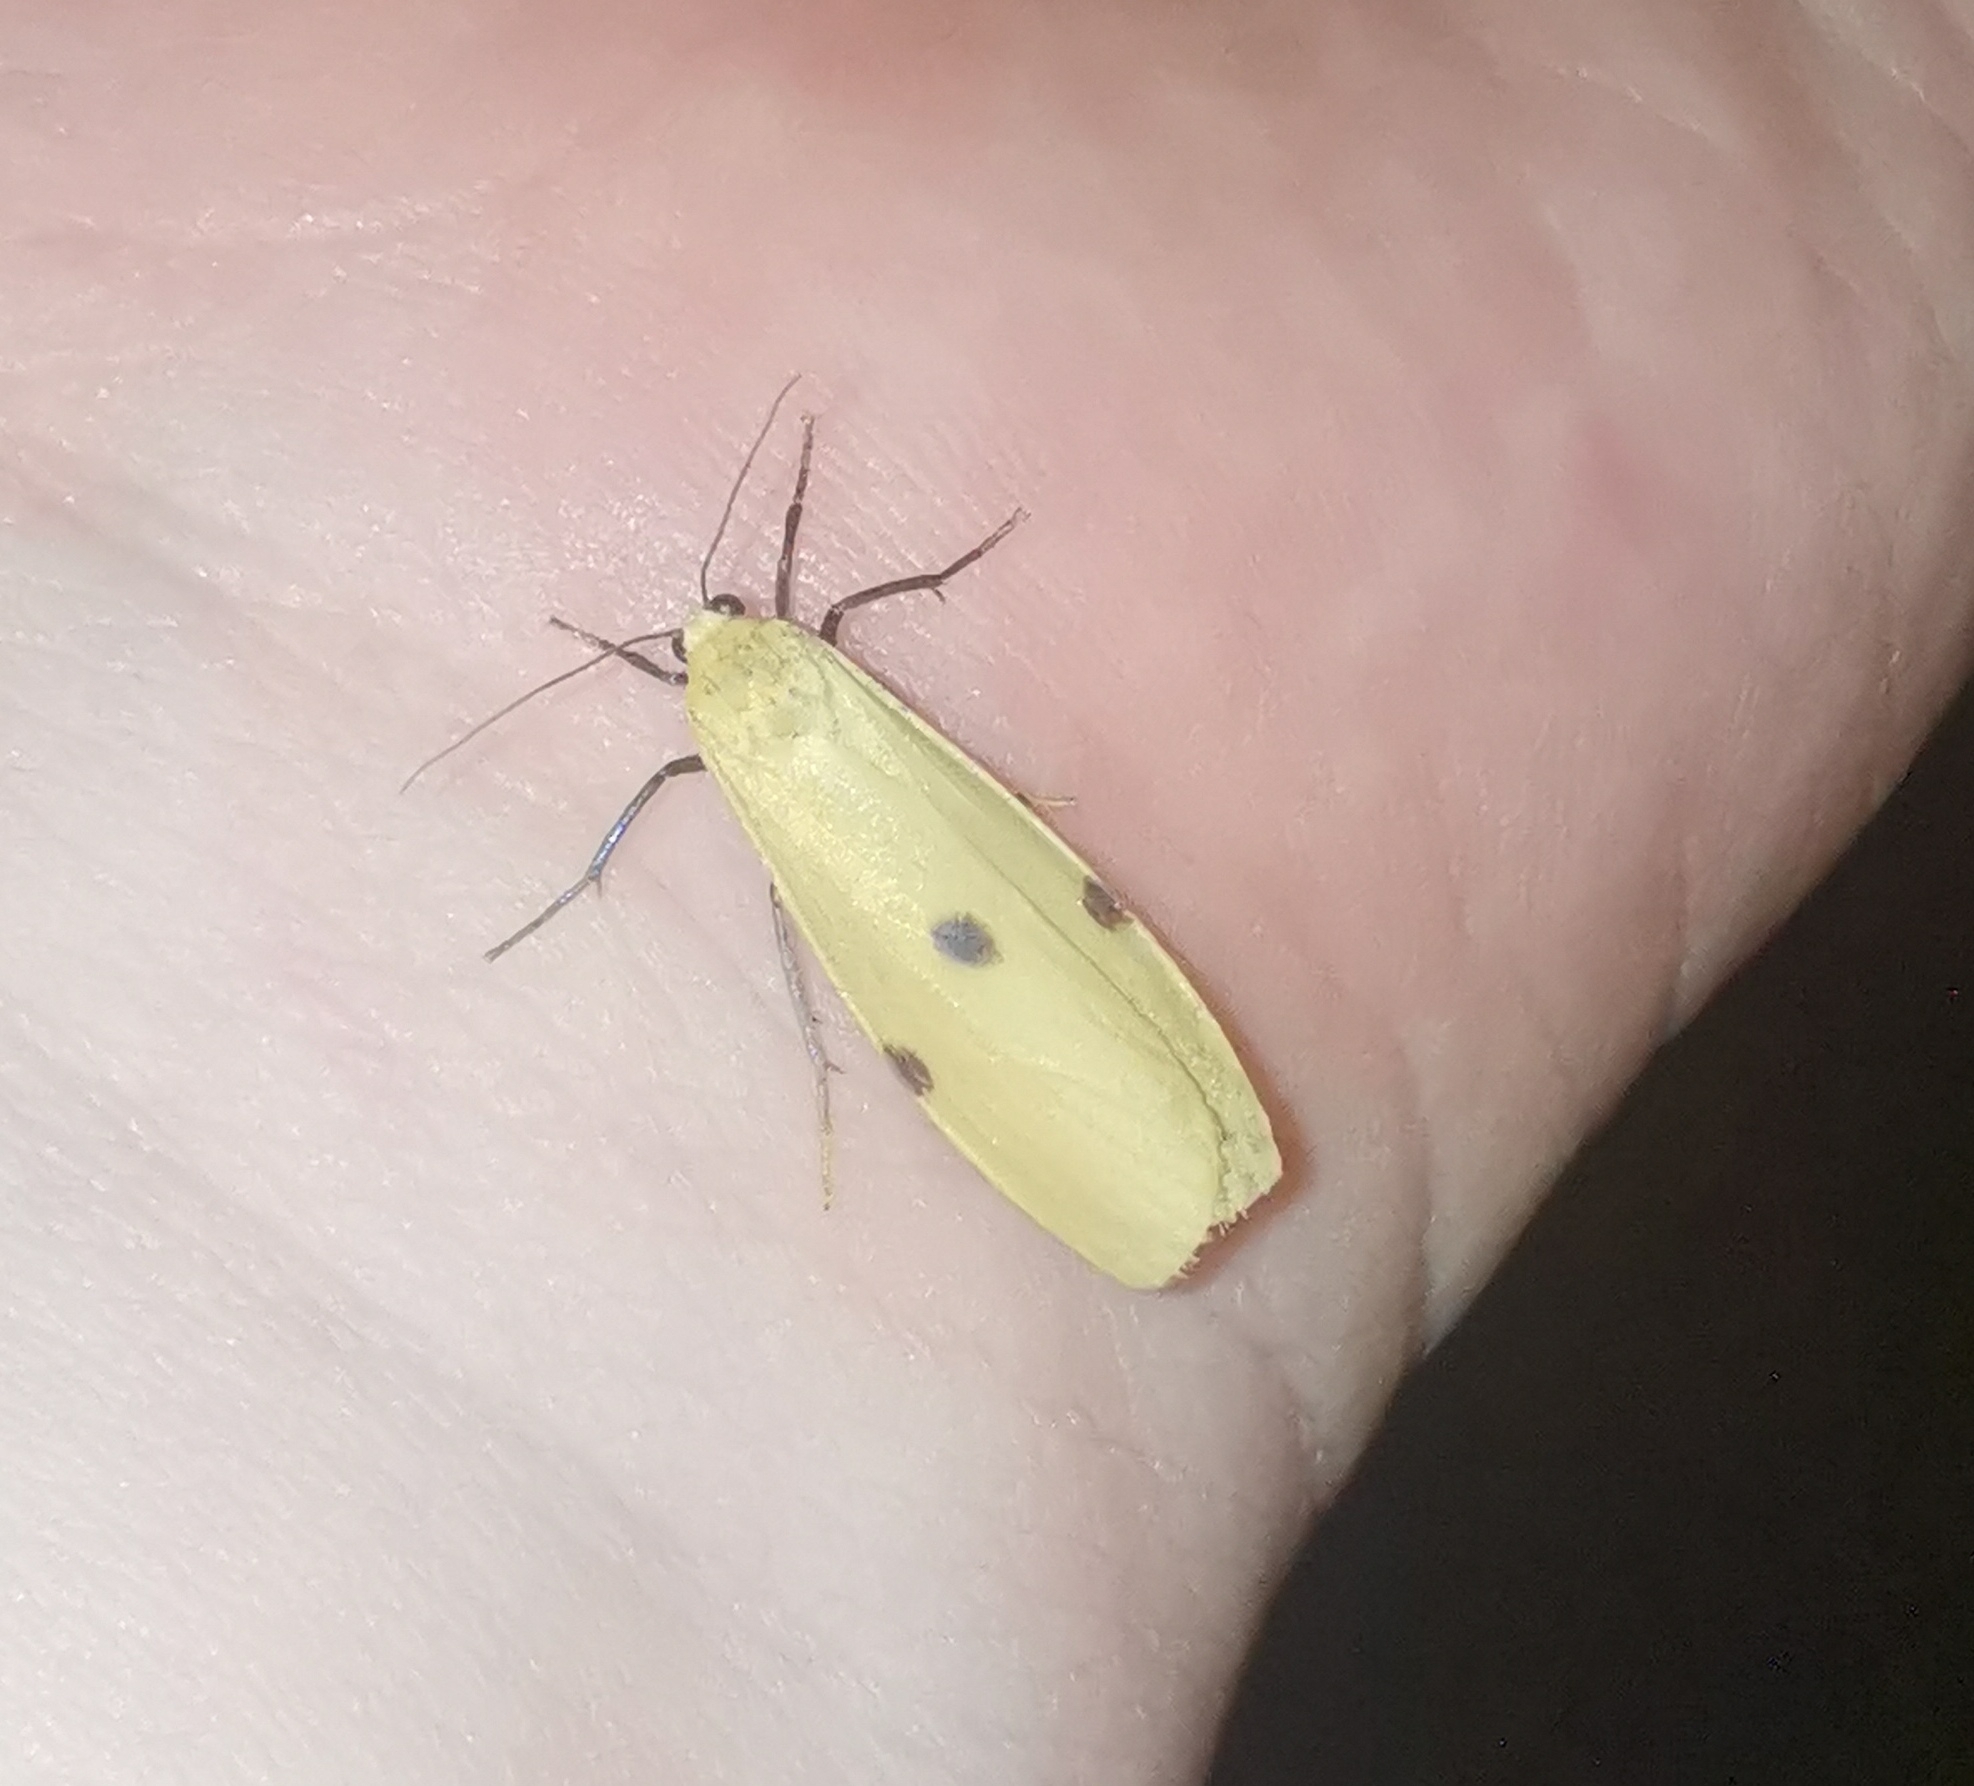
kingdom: Animalia
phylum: Arthropoda
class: Insecta
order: Lepidoptera
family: Erebidae
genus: Lithosia
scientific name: Lithosia quadra
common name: Four-spotted footman
